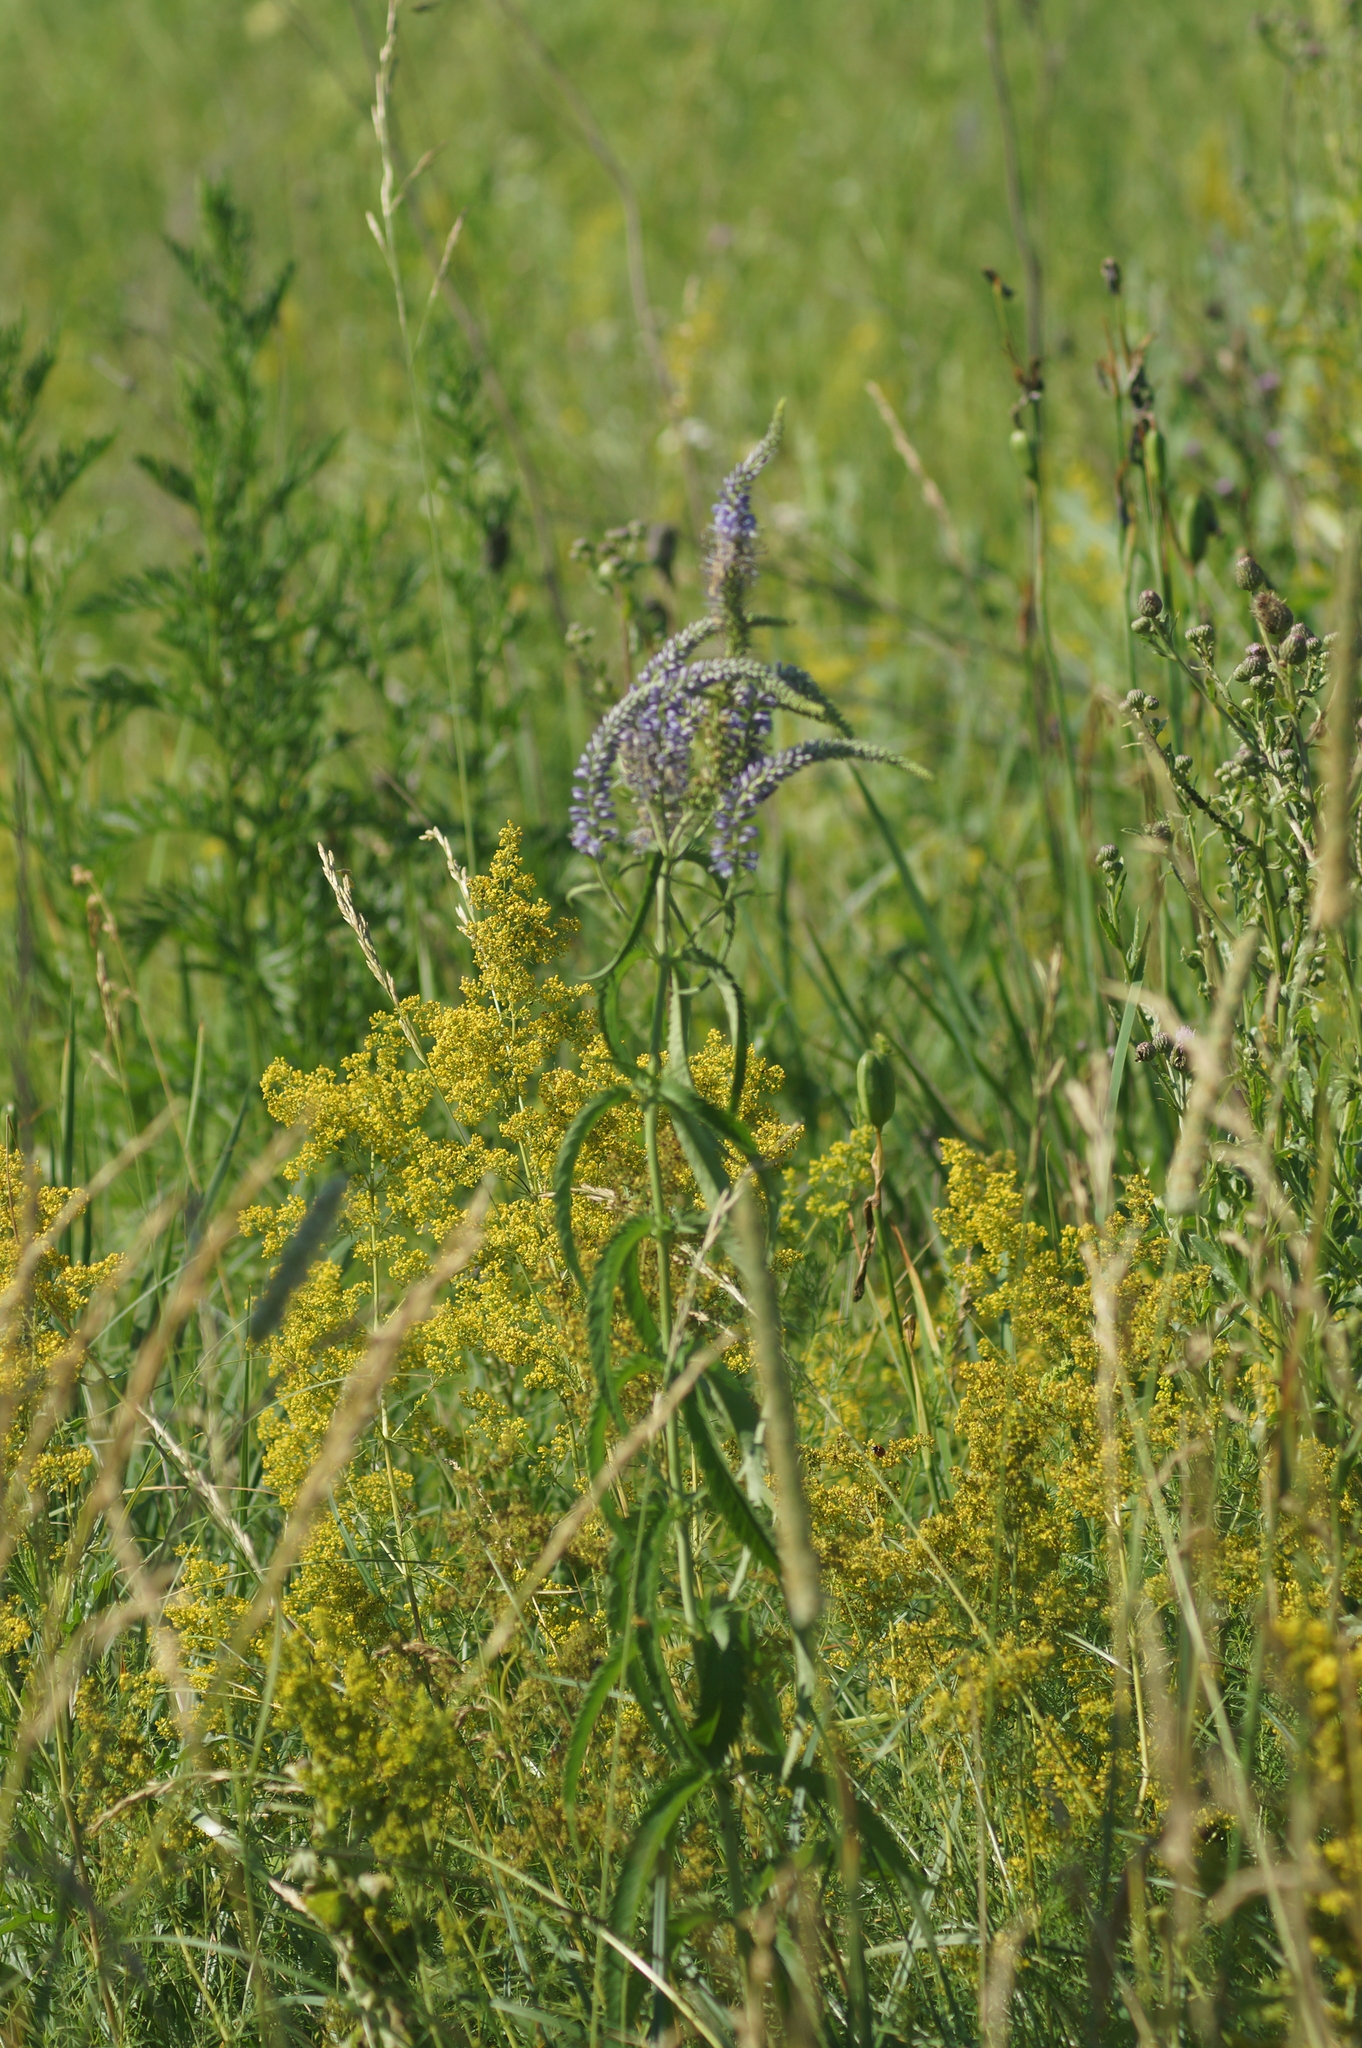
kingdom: Plantae
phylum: Tracheophyta
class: Magnoliopsida
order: Lamiales
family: Plantaginaceae
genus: Veronica
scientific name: Veronica longifolia
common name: Garden speedwell
